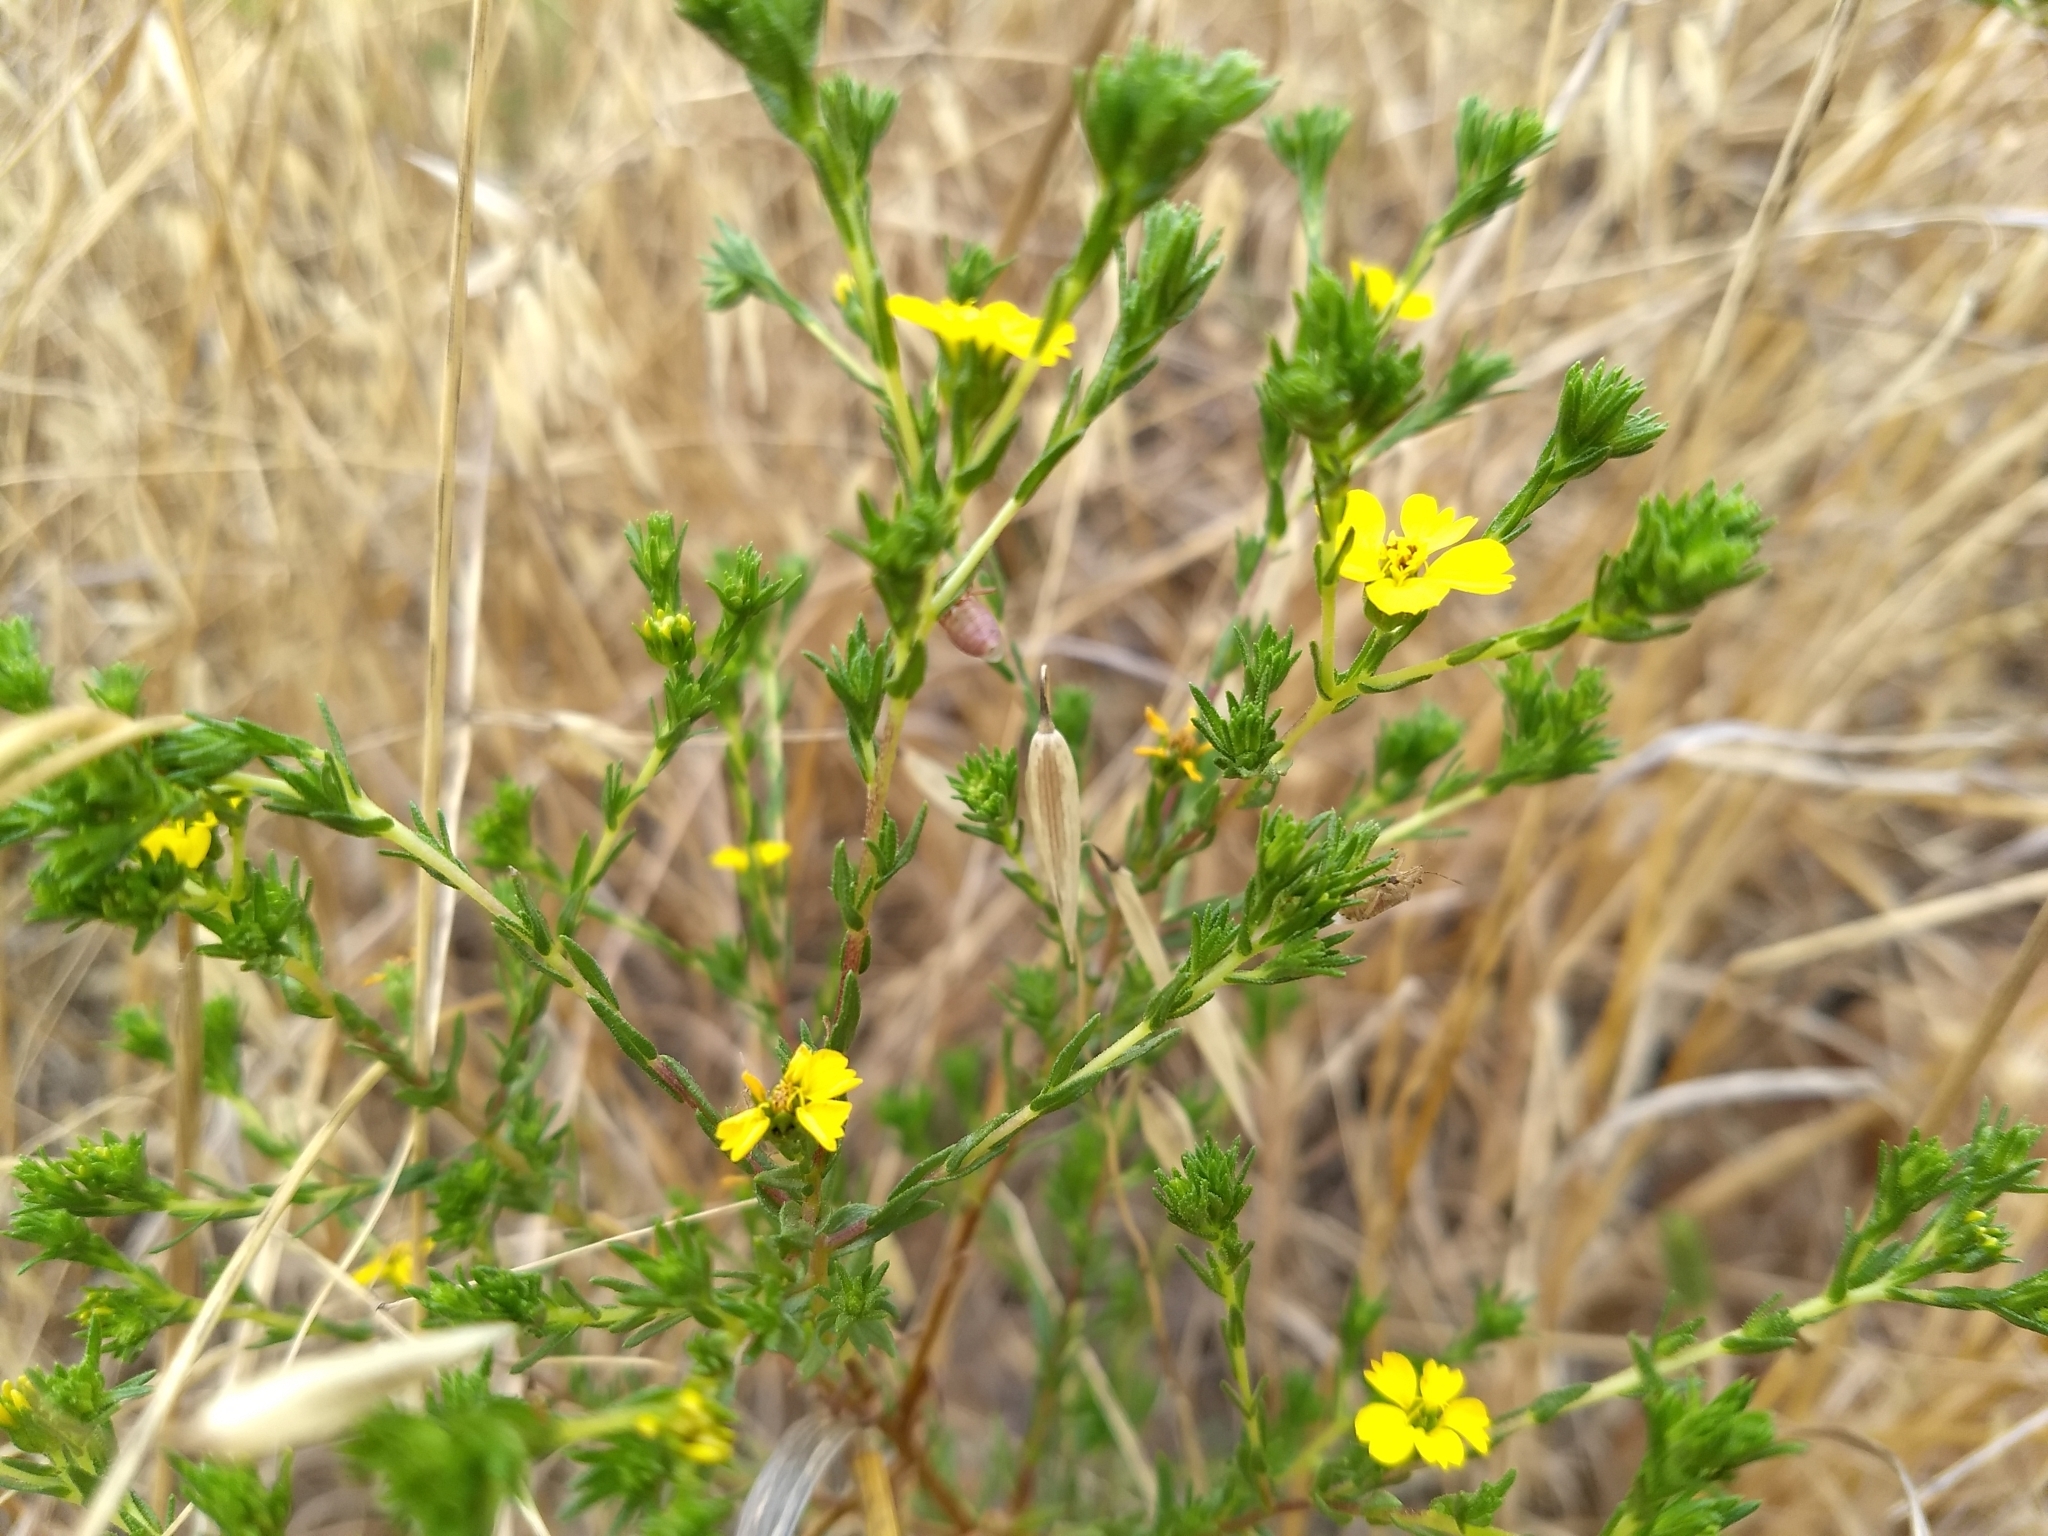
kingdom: Plantae
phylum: Tracheophyta
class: Magnoliopsida
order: Asterales
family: Asteraceae
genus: Deinandra
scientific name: Deinandra fasciculata
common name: Clustered tarweed
